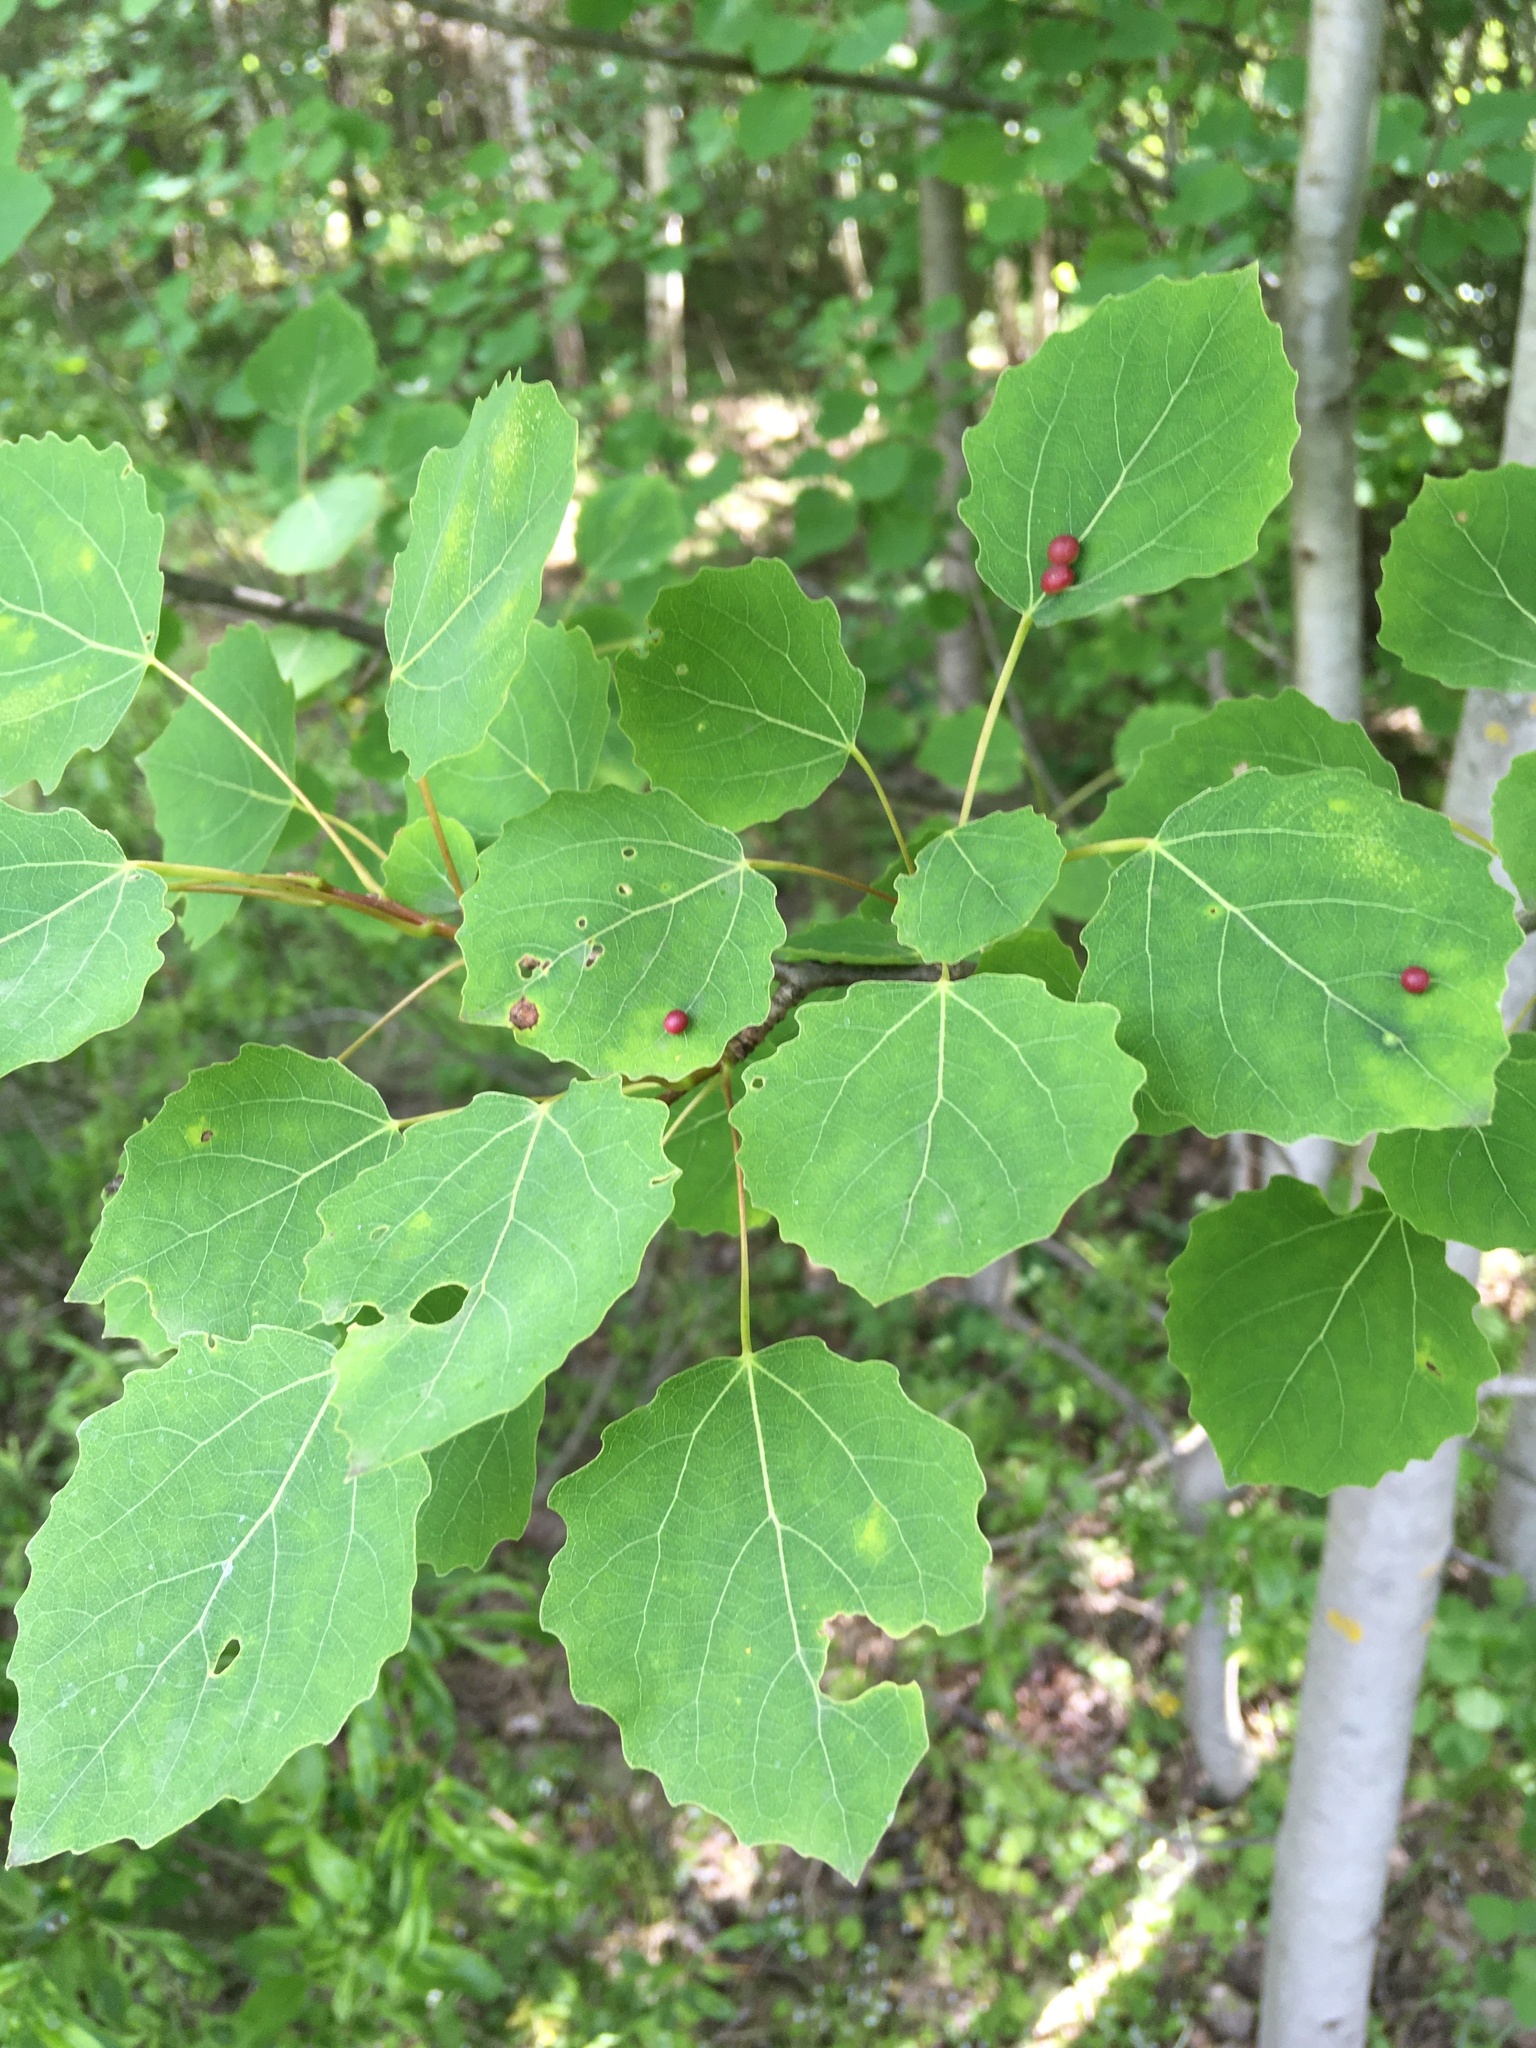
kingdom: Plantae
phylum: Tracheophyta
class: Magnoliopsida
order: Malpighiales
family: Salicaceae
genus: Populus
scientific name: Populus tremula
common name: European aspen
